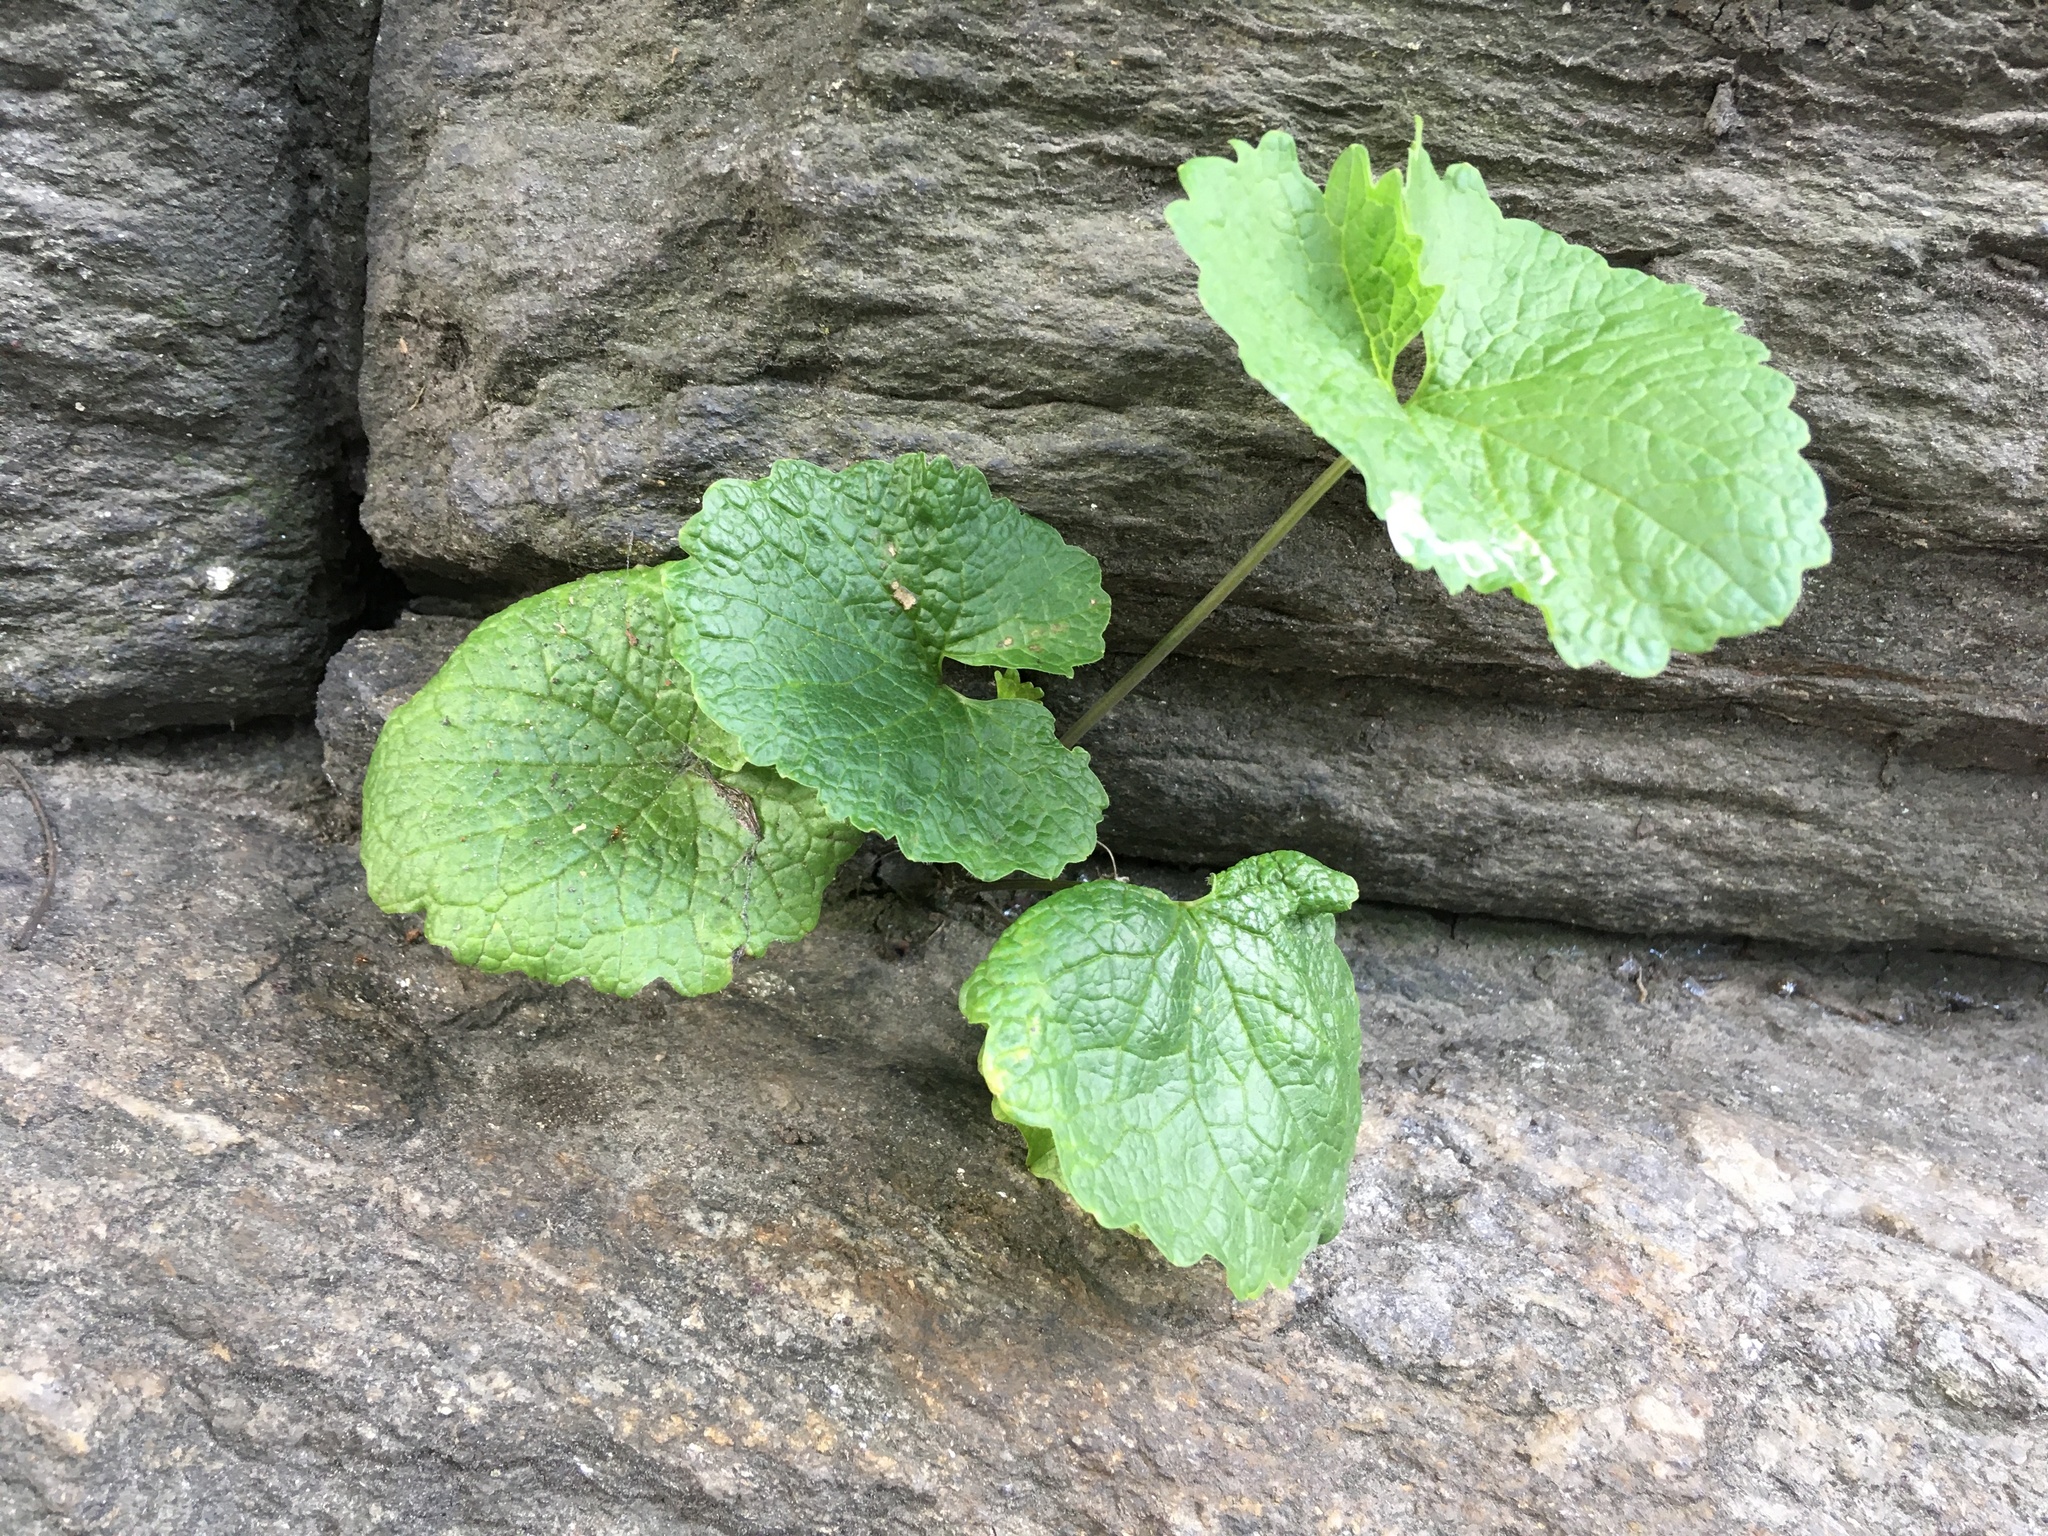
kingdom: Plantae
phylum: Tracheophyta
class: Magnoliopsida
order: Brassicales
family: Brassicaceae
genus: Alliaria
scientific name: Alliaria petiolata
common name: Garlic mustard
